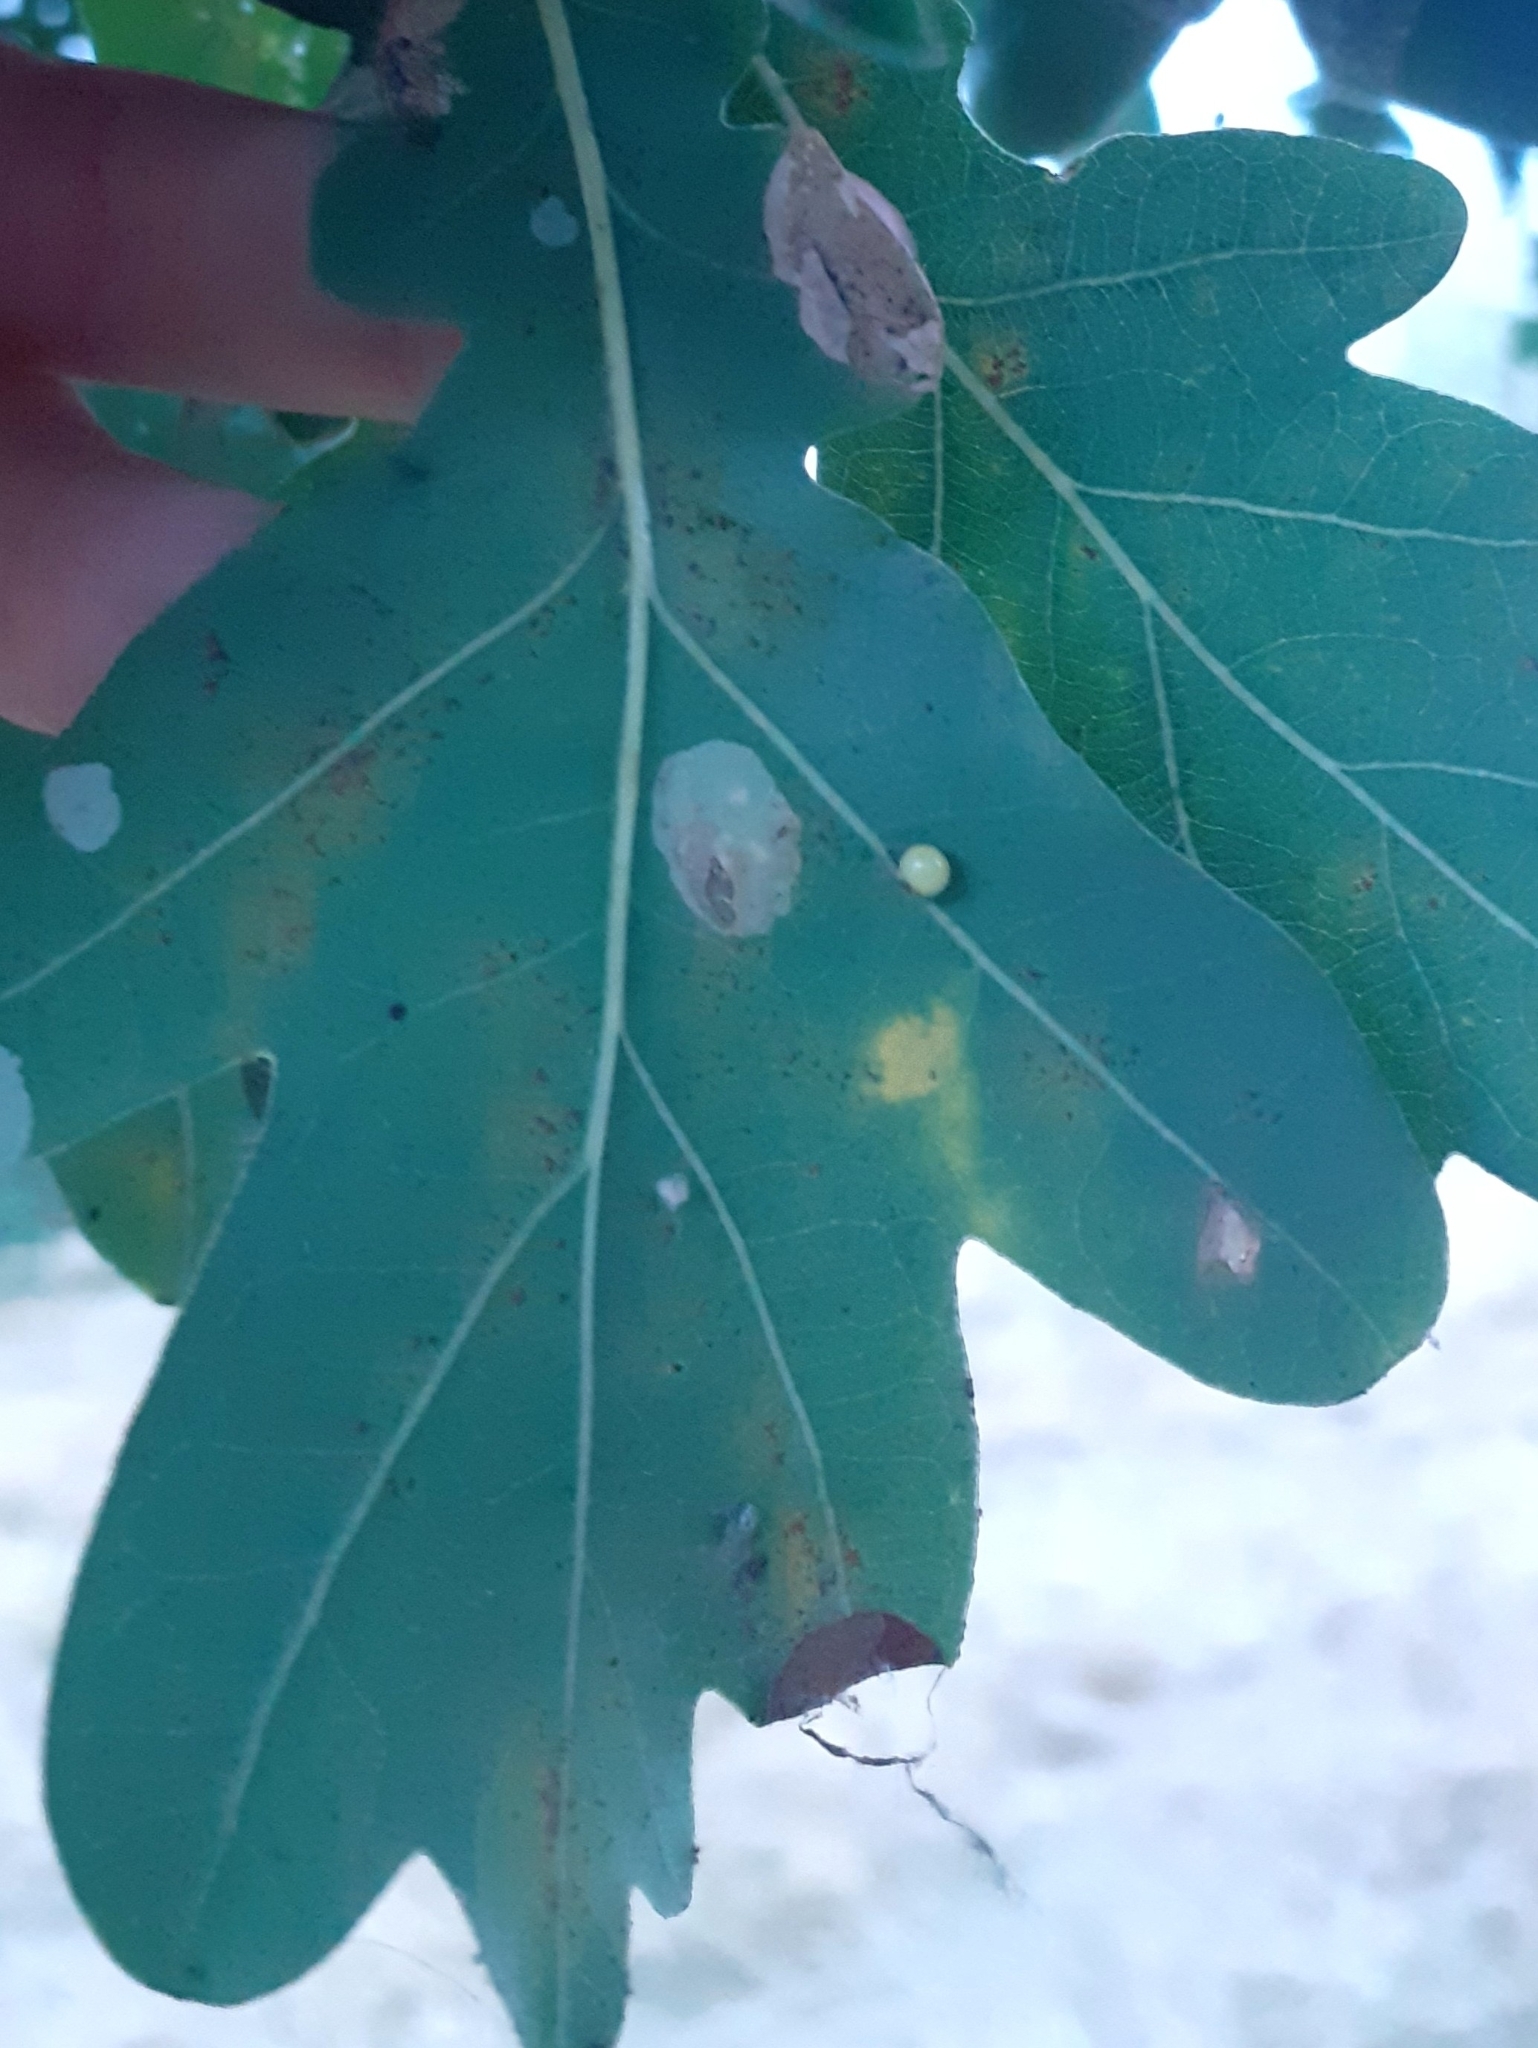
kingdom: Animalia
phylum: Arthropoda
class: Insecta
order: Hymenoptera
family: Cynipidae
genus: Neuroterus
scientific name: Neuroterus anthracinus
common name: Oyster gall
